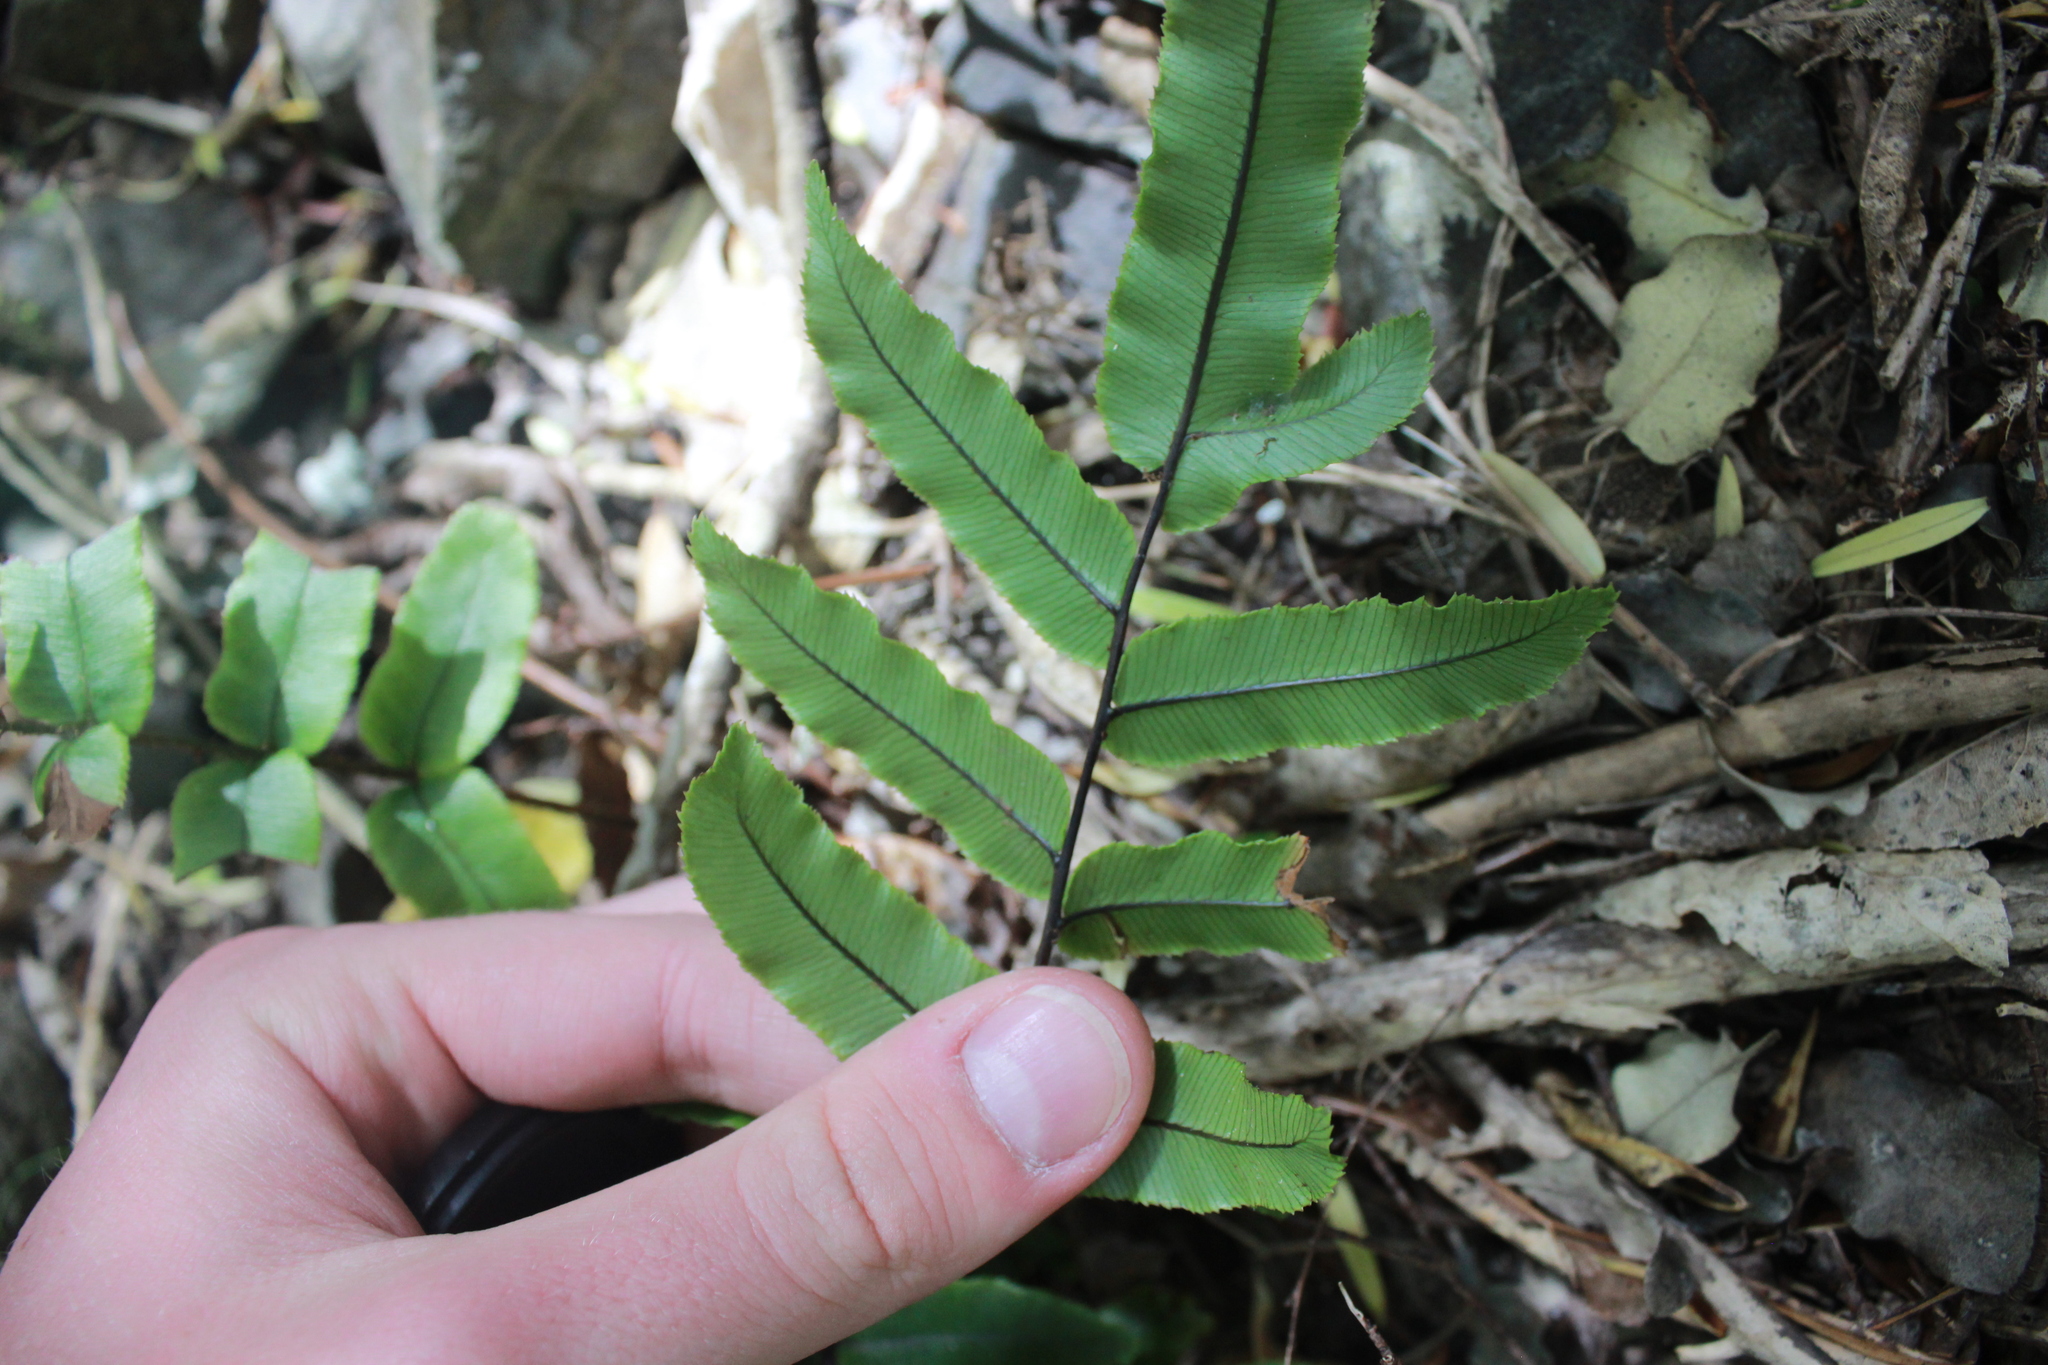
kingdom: Plantae
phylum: Tracheophyta
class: Polypodiopsida
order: Polypodiales
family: Blechnaceae
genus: Parablechnum
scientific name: Parablechnum procerum
